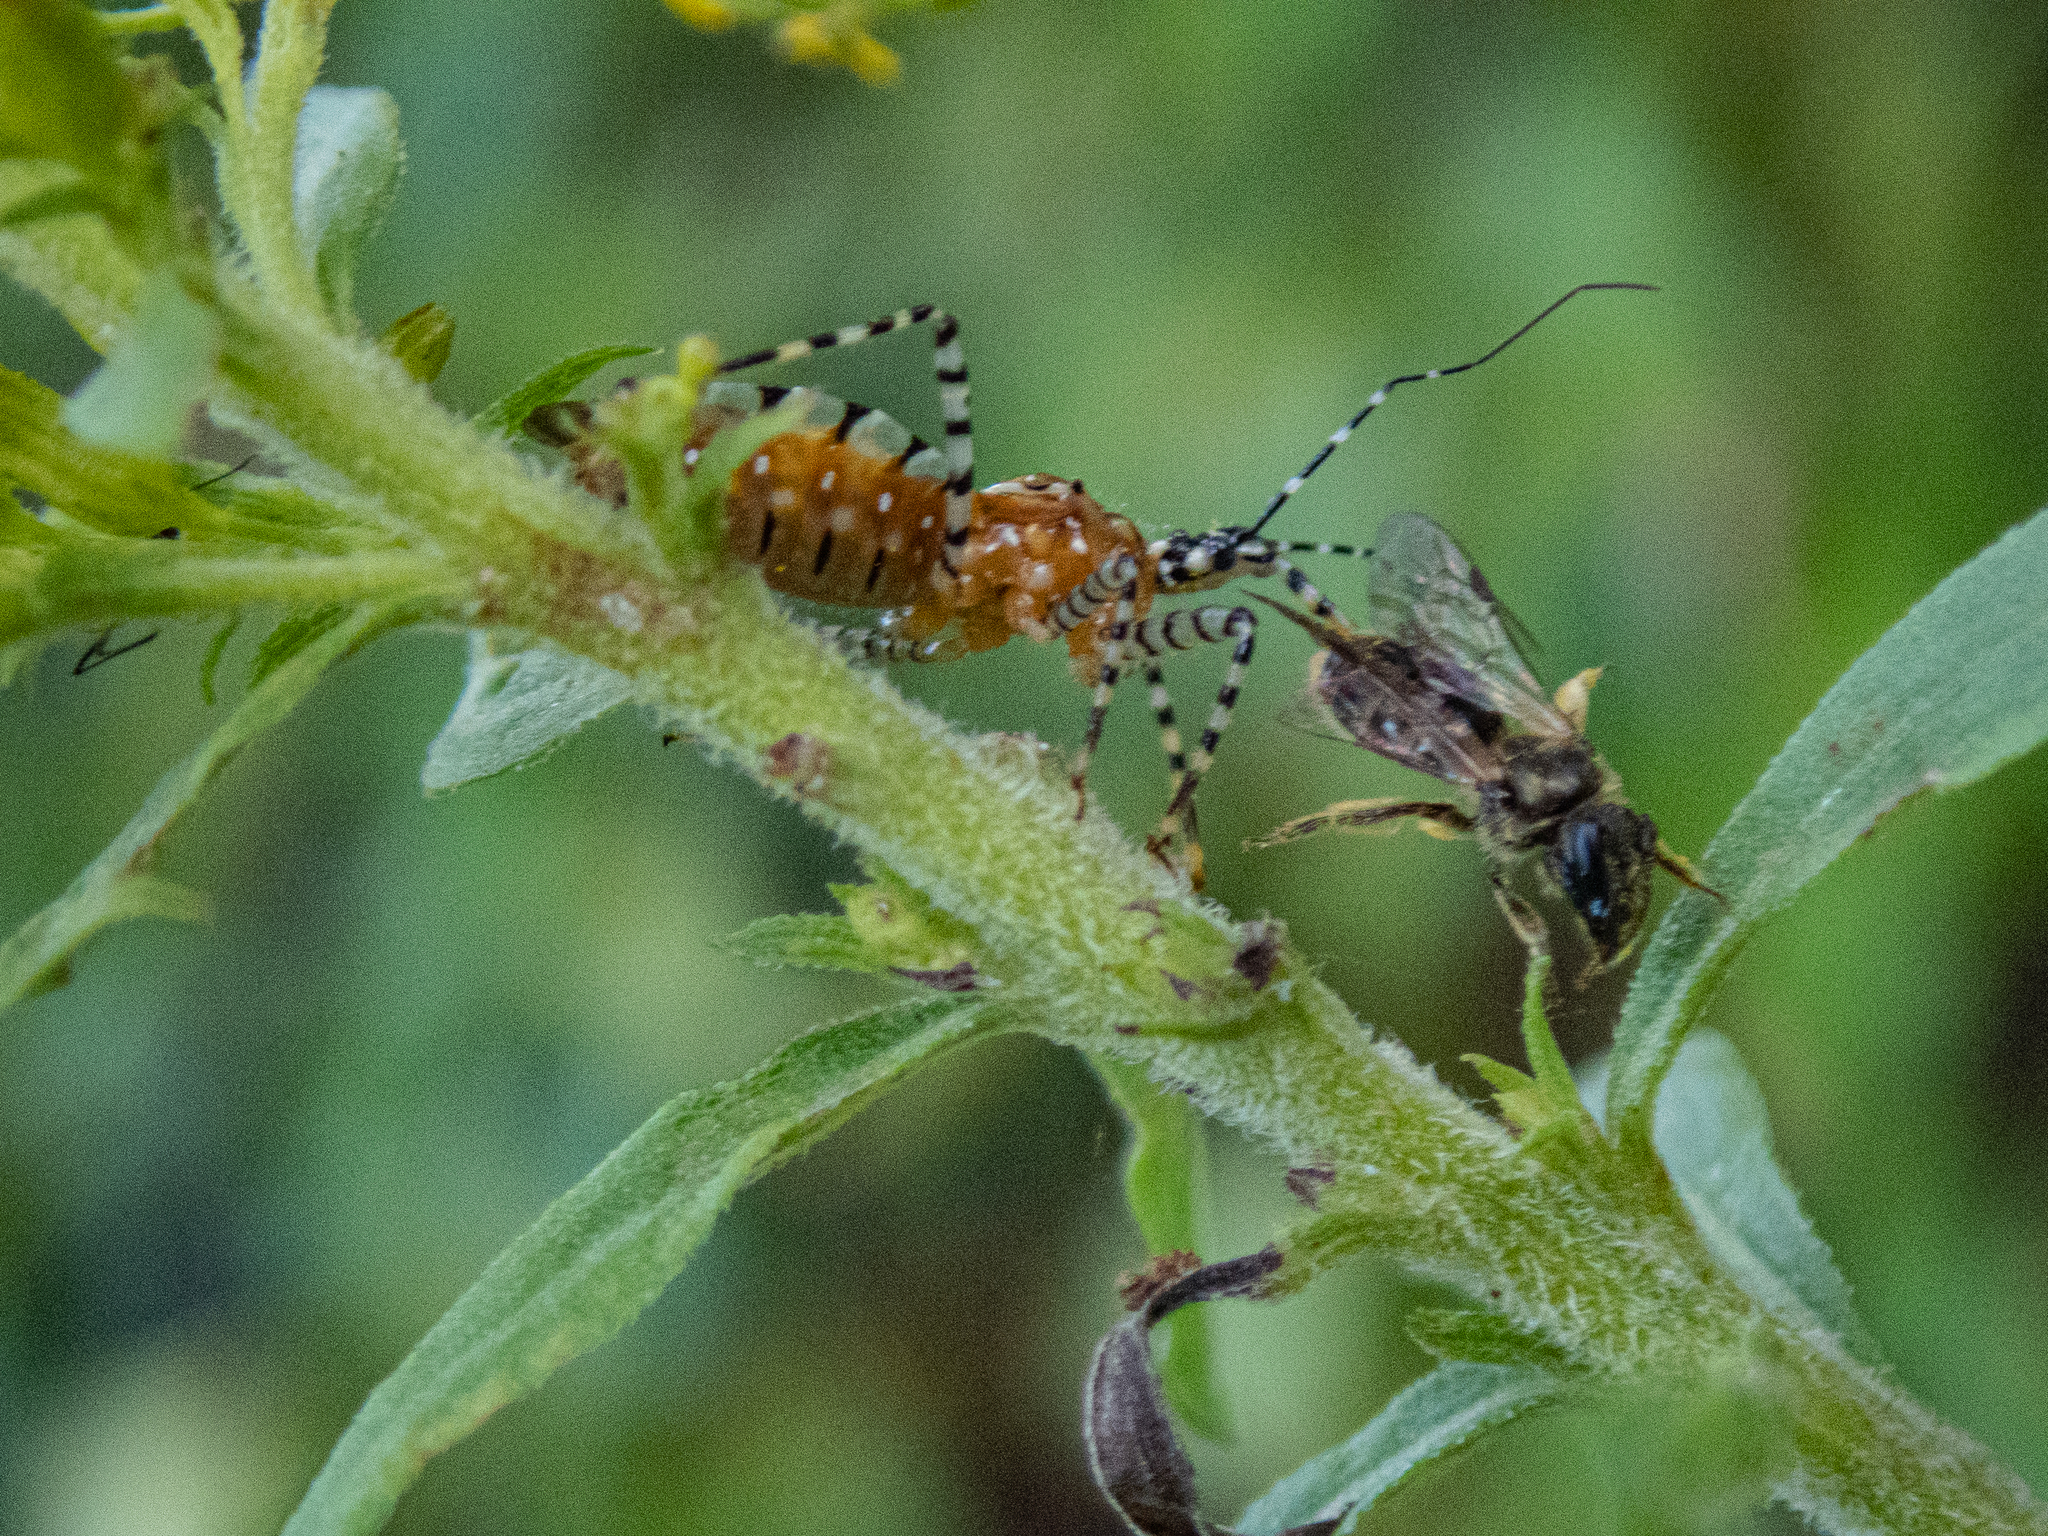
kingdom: Animalia
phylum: Arthropoda
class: Insecta
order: Hemiptera
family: Reduviidae
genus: Pselliopus
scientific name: Pselliopus cinctus
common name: Ringed assassin bug
